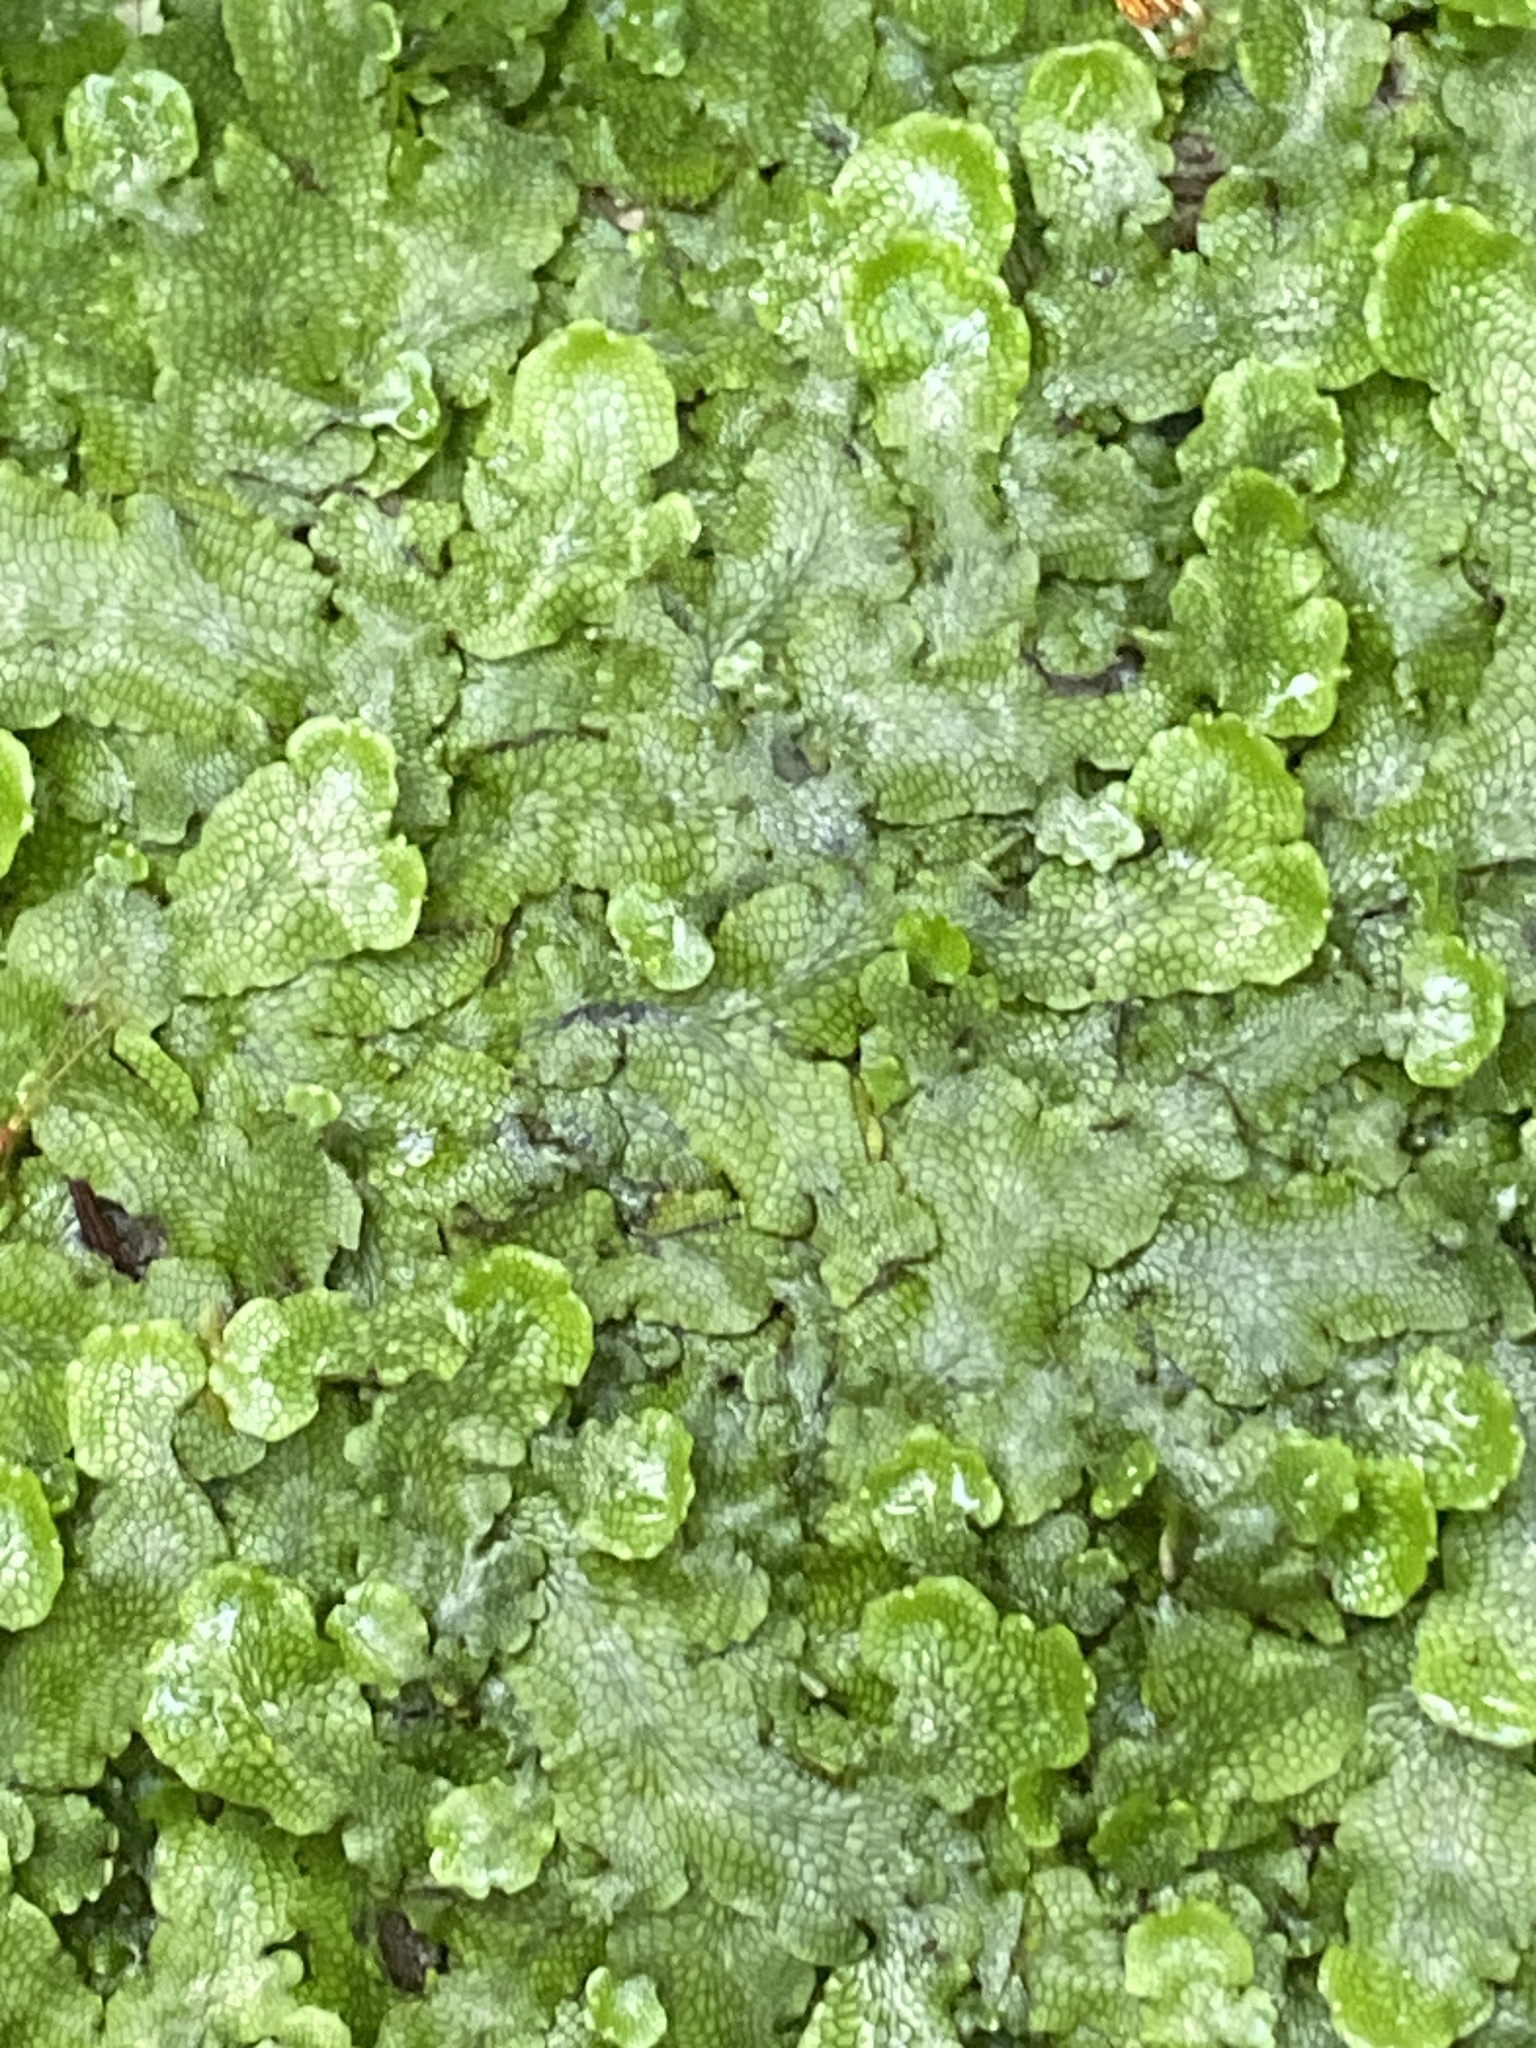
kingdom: Plantae
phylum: Marchantiophyta
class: Marchantiopsida
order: Marchantiales
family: Conocephalaceae
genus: Conocephalum
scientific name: Conocephalum salebrosum
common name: Cat-tongue liverwort
